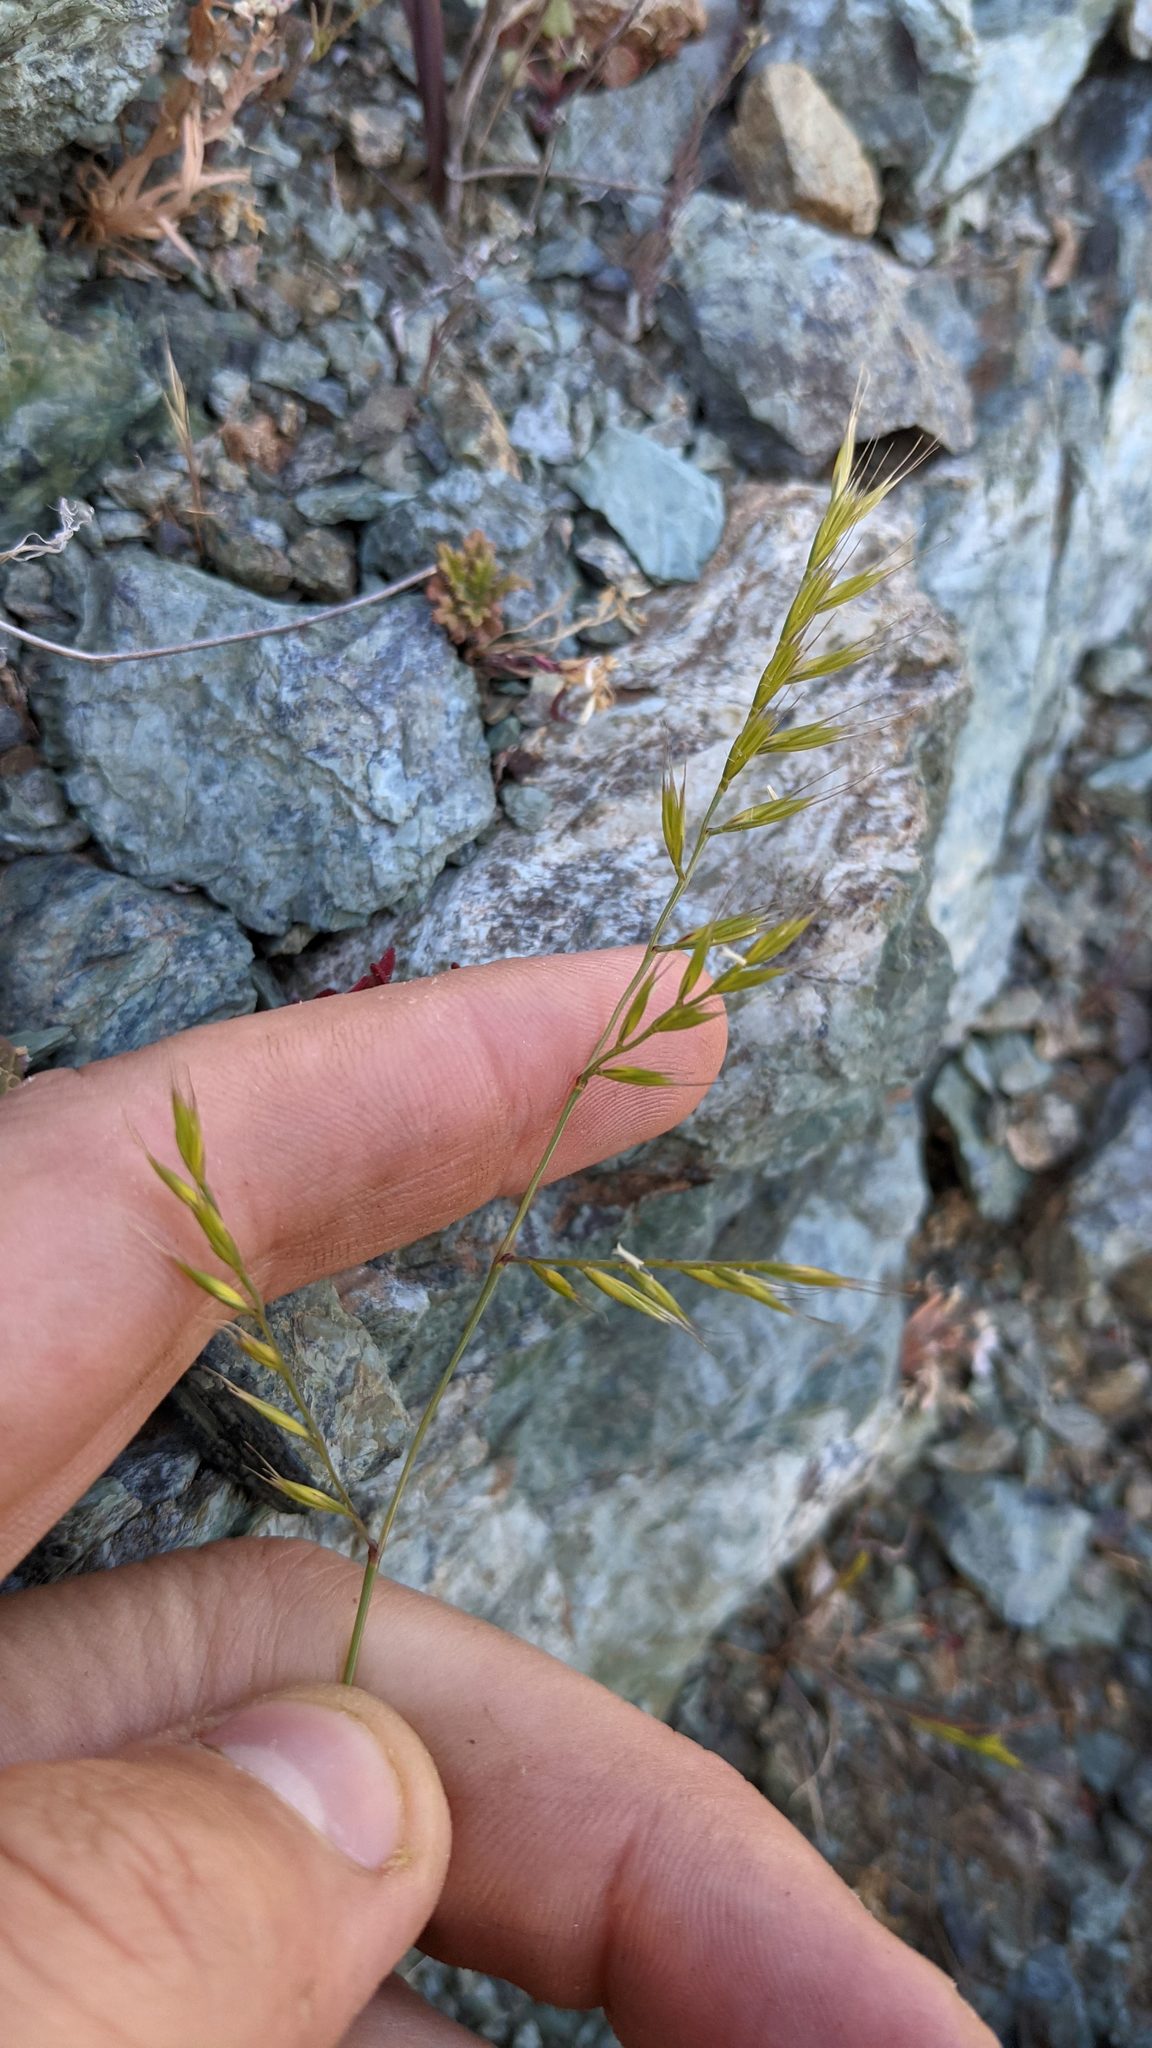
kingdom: Plantae
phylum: Tracheophyta
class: Liliopsida
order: Poales
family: Poaceae
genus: Festuca
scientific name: Festuca microstachys
